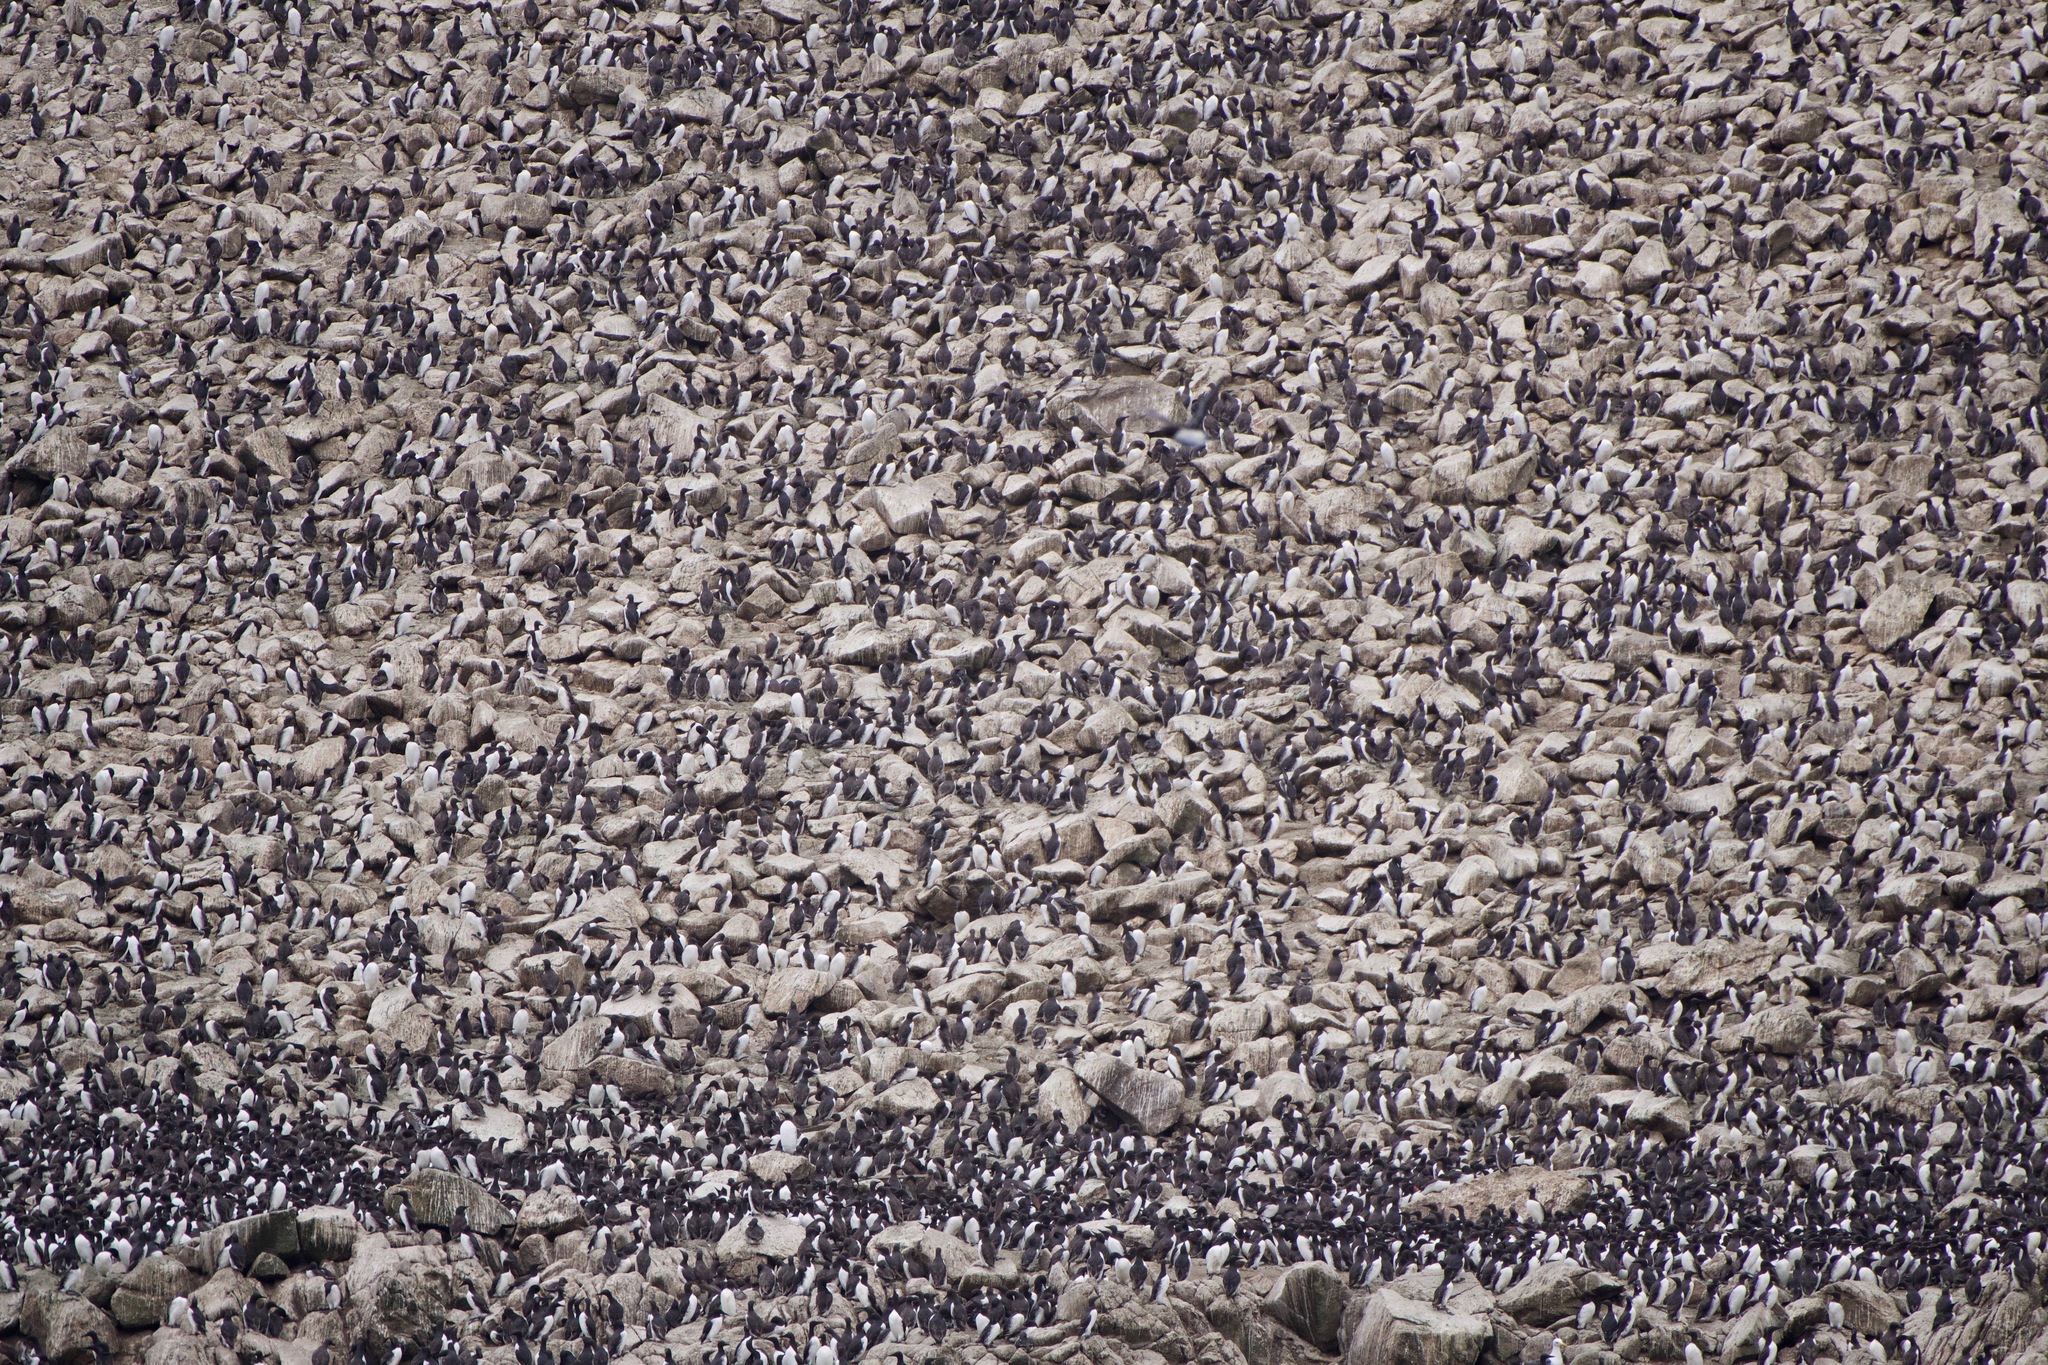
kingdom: Animalia
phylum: Chordata
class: Aves
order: Charadriiformes
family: Alcidae
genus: Uria
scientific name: Uria aalge
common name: Common murre
